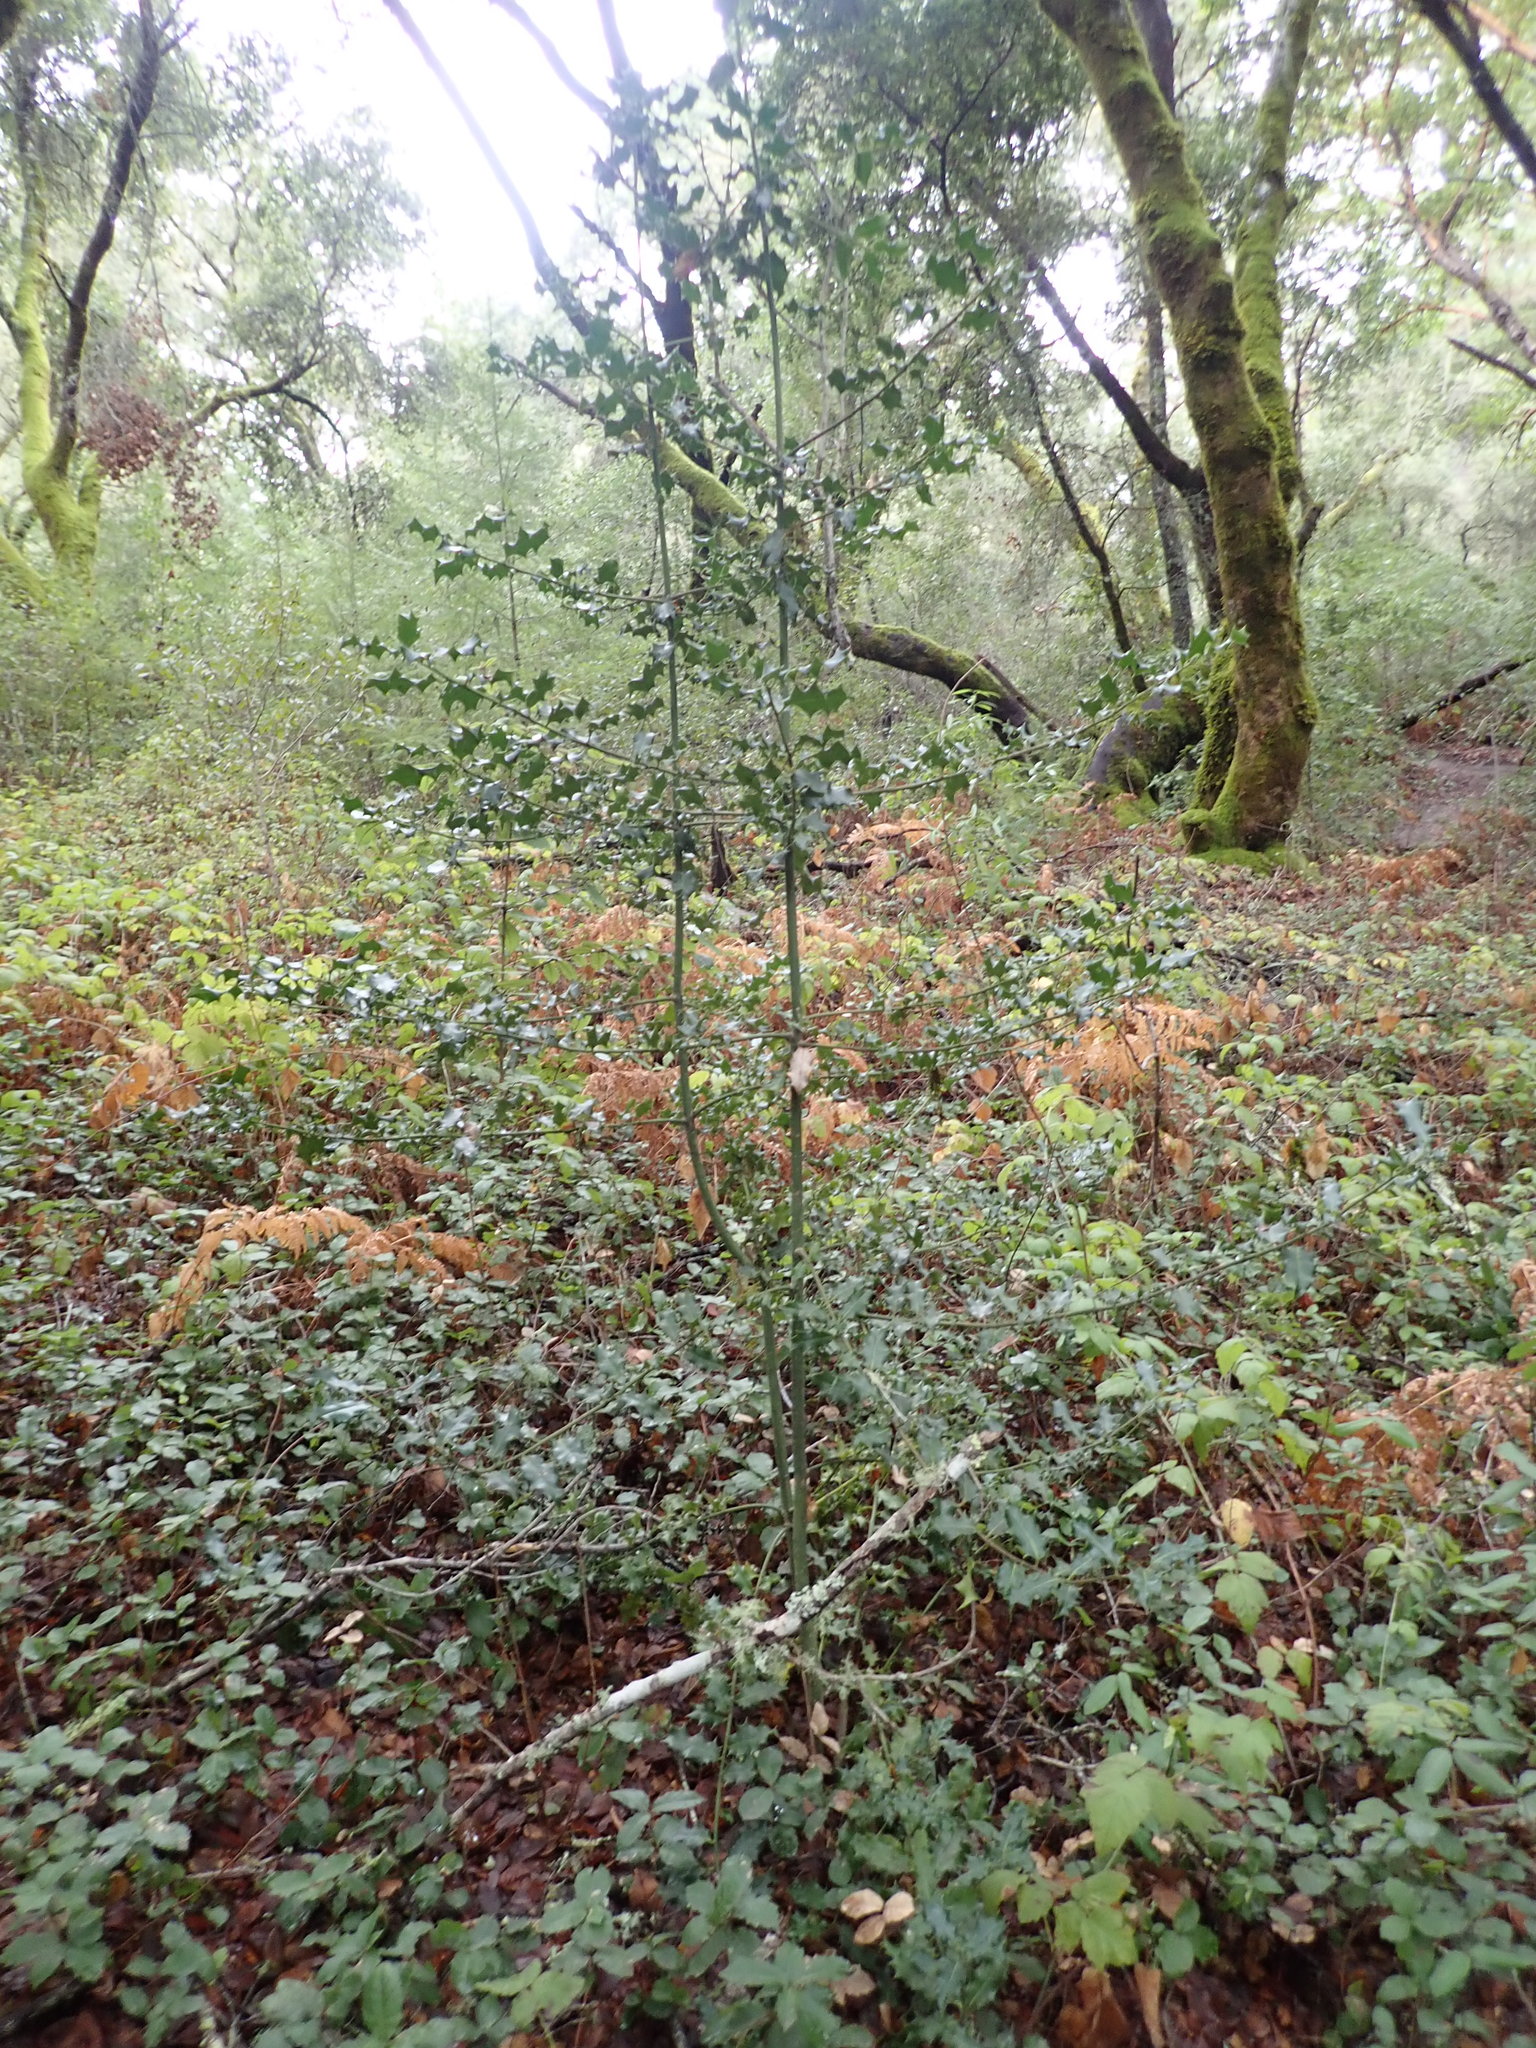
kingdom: Plantae
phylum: Tracheophyta
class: Magnoliopsida
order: Aquifoliales
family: Aquifoliaceae
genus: Ilex
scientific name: Ilex aquifolium
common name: English holly
